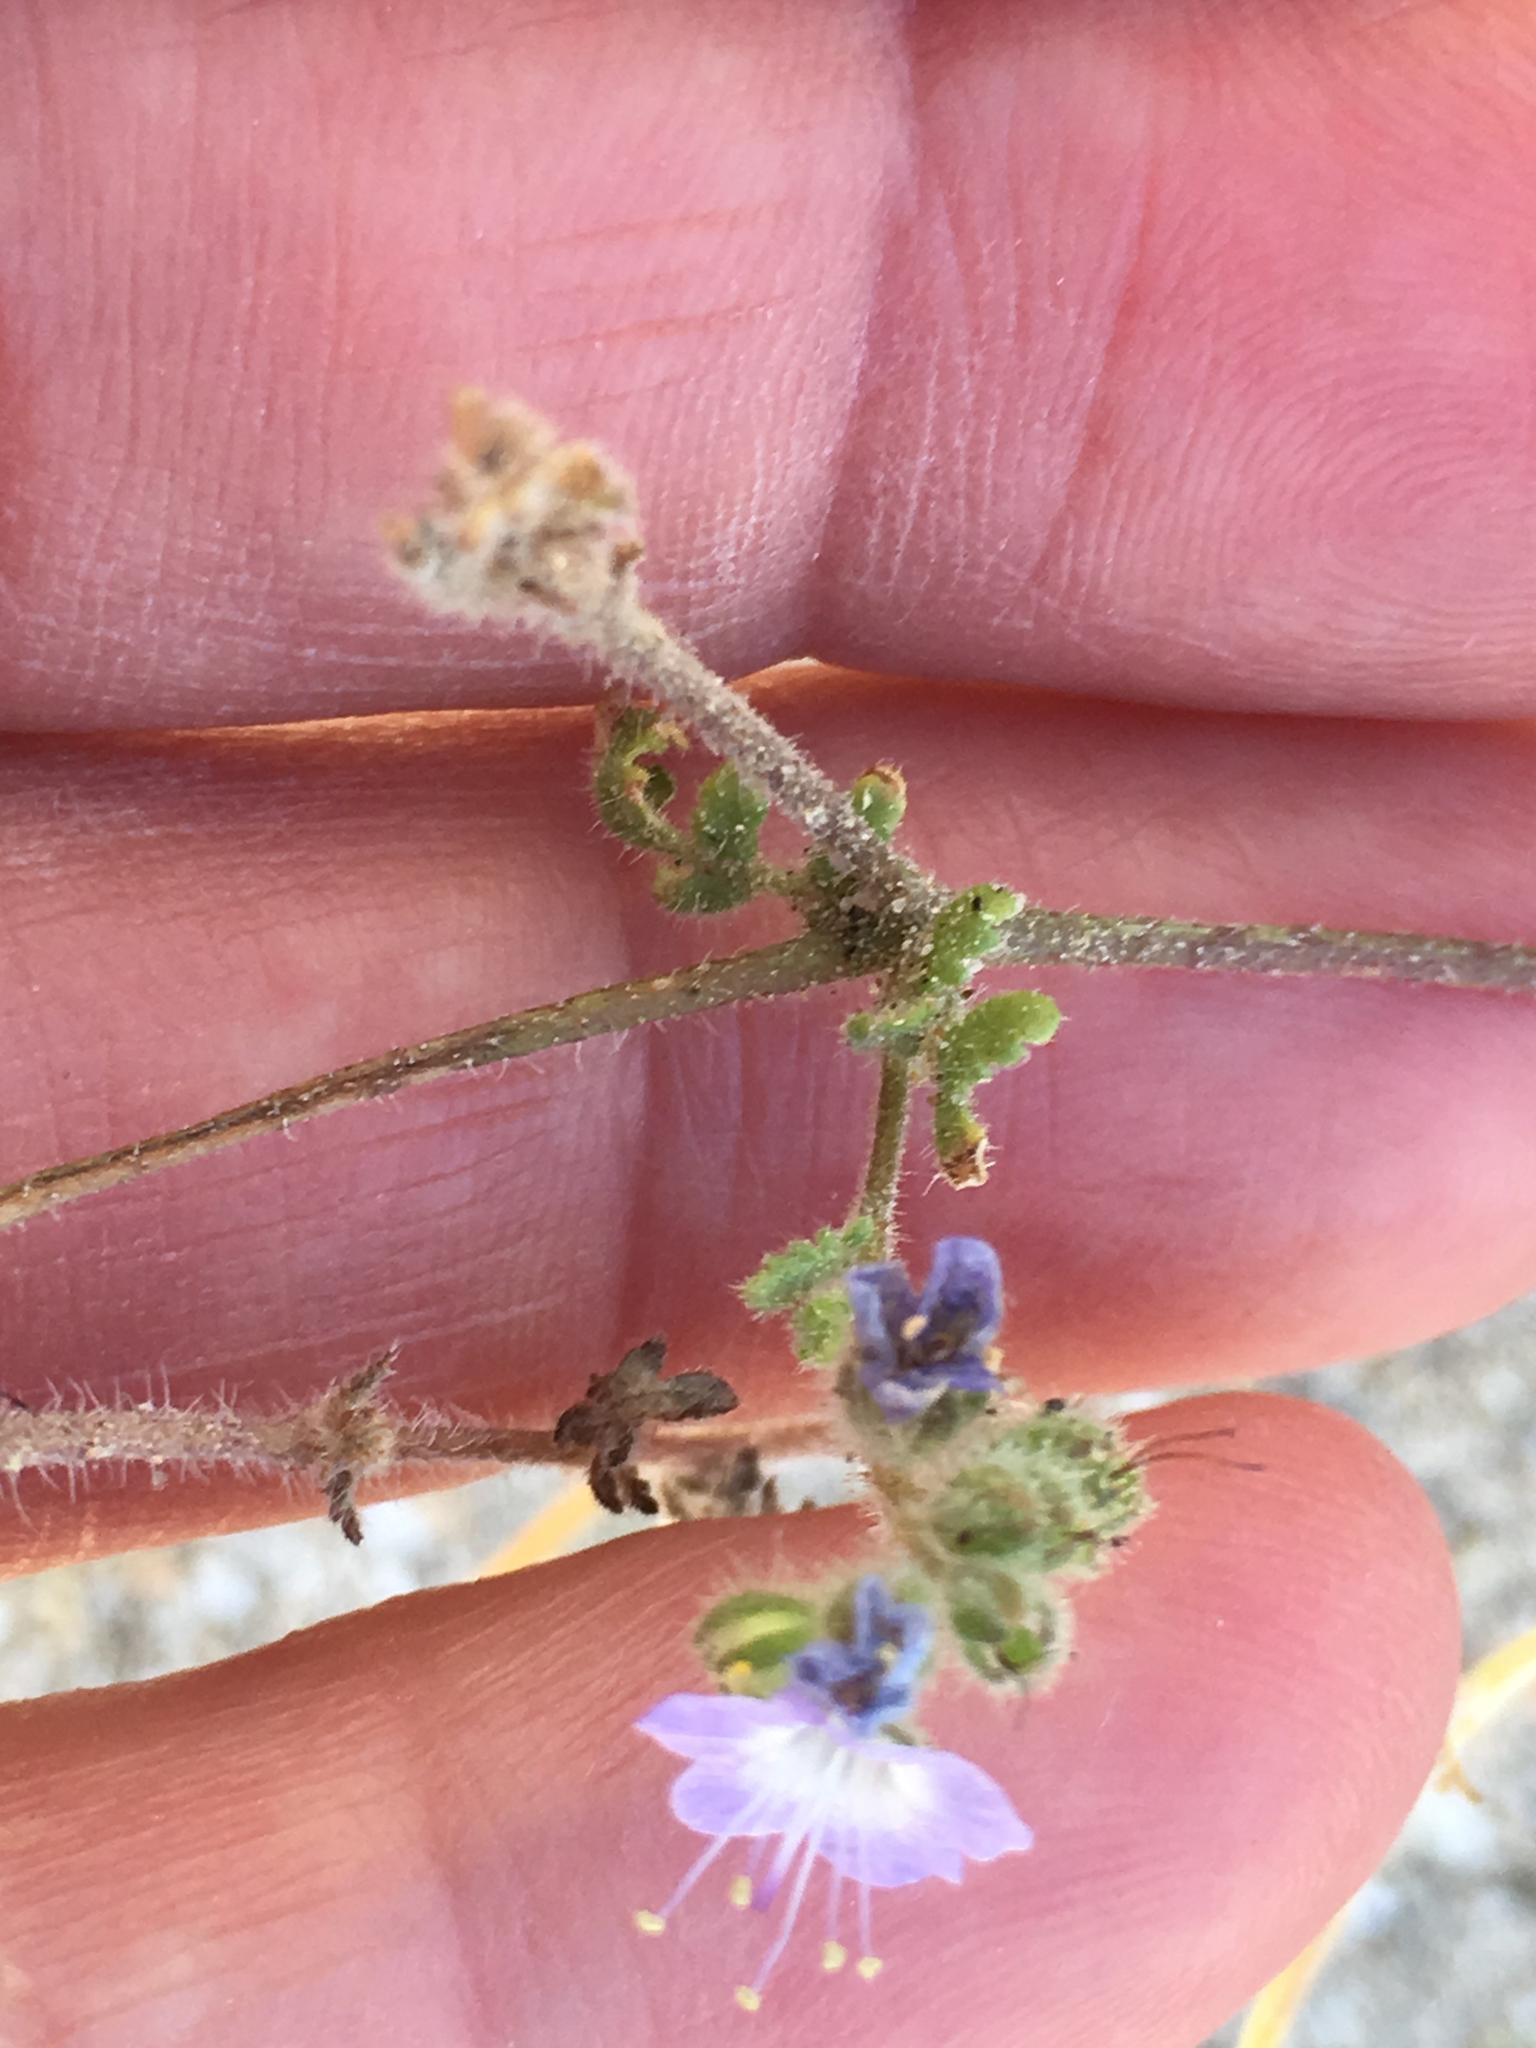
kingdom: Plantae
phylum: Tracheophyta
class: Magnoliopsida
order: Boraginales
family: Hydrophyllaceae
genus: Phacelia
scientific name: Phacelia crenulata
